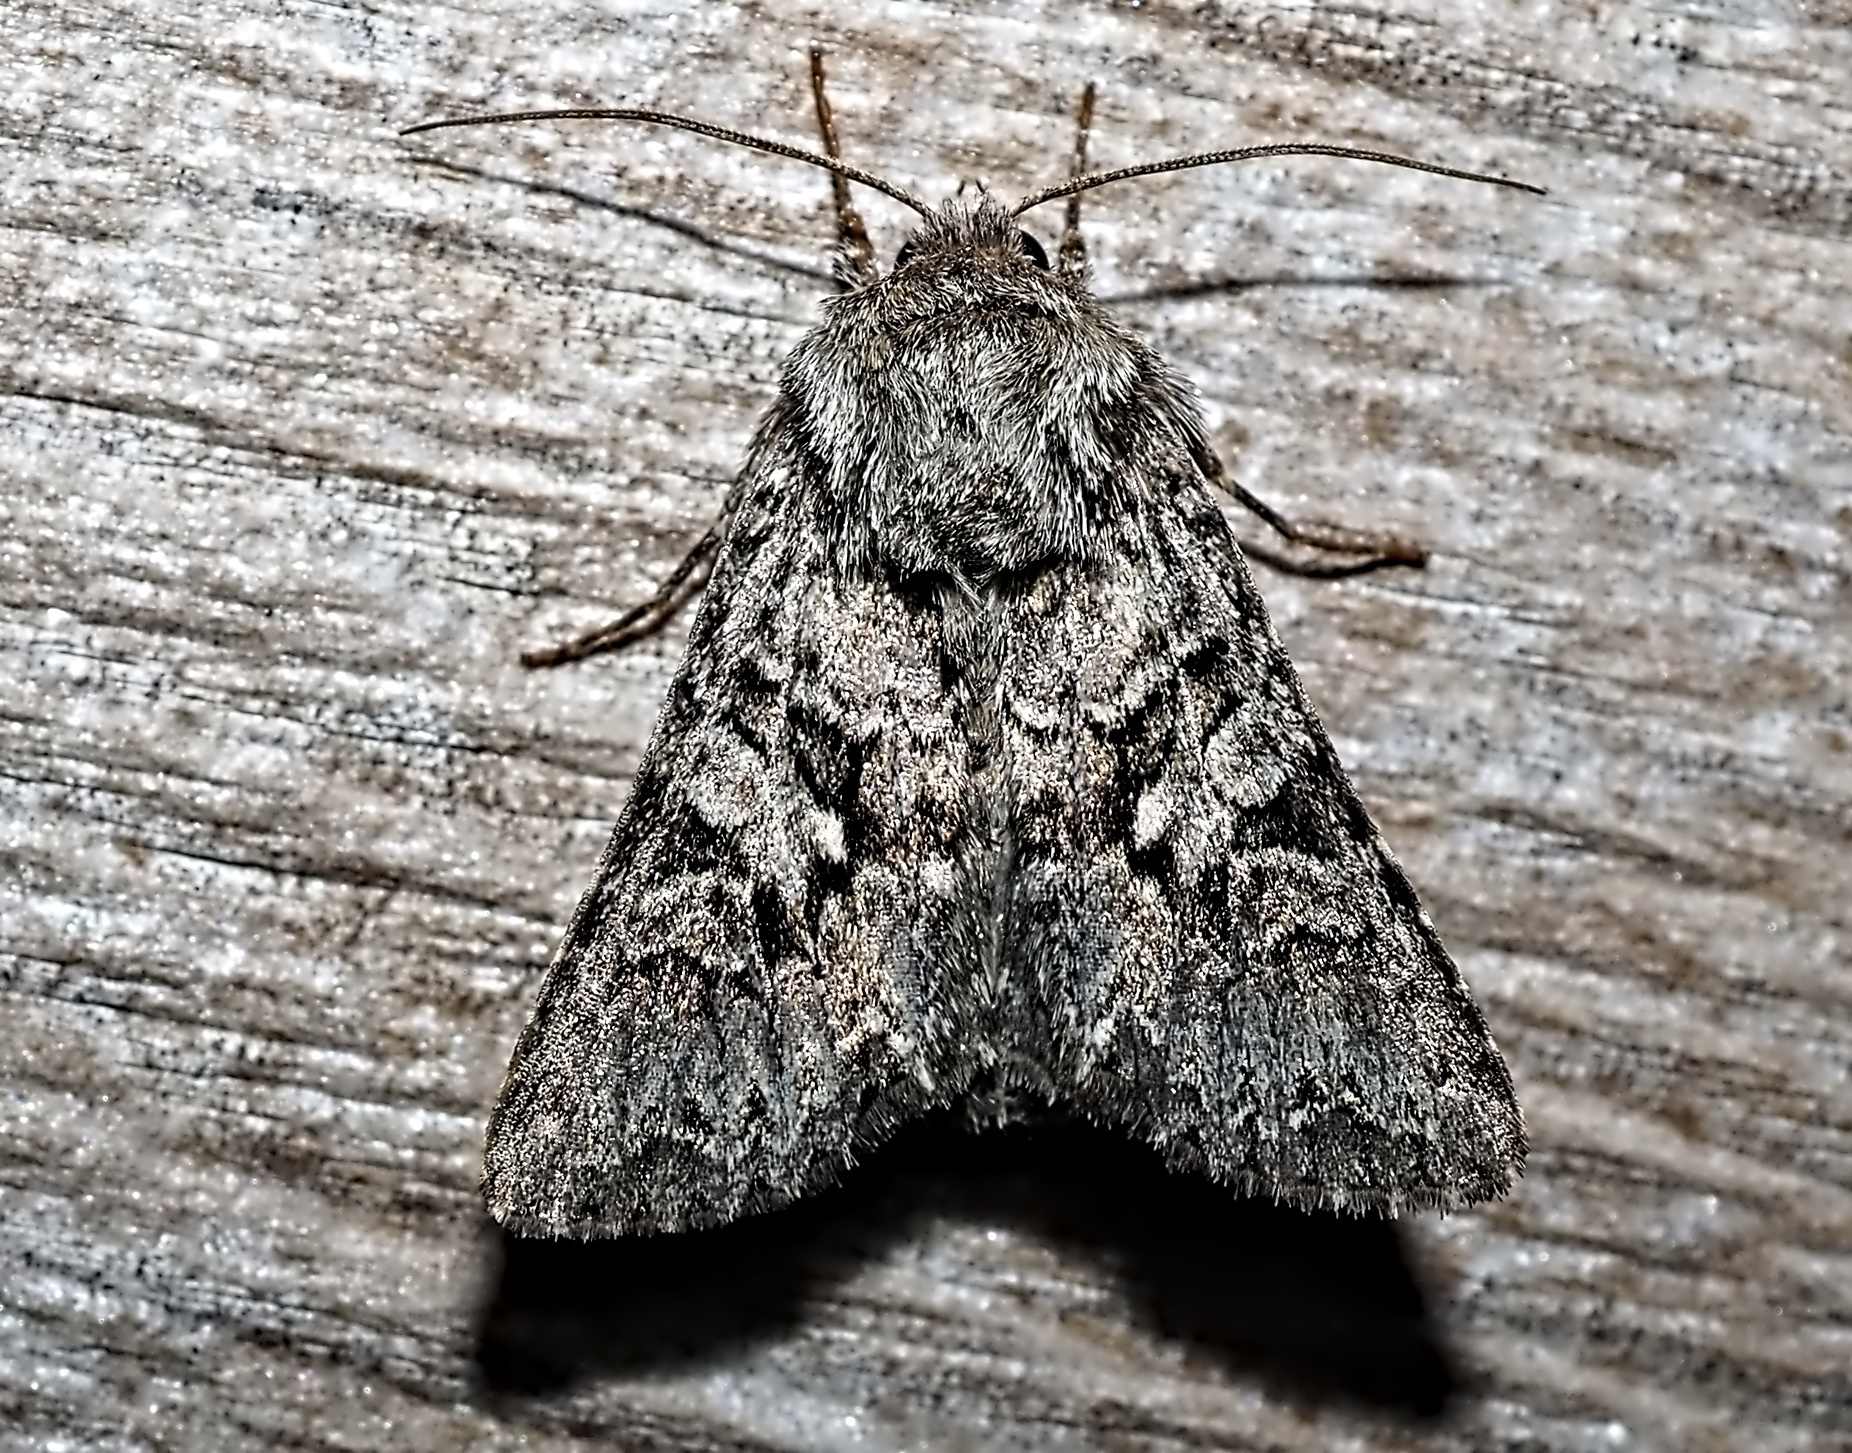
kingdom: Animalia
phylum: Arthropoda
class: Insecta
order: Lepidoptera
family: Noctuidae
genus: Hada
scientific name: Hada plebeja
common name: Shears
